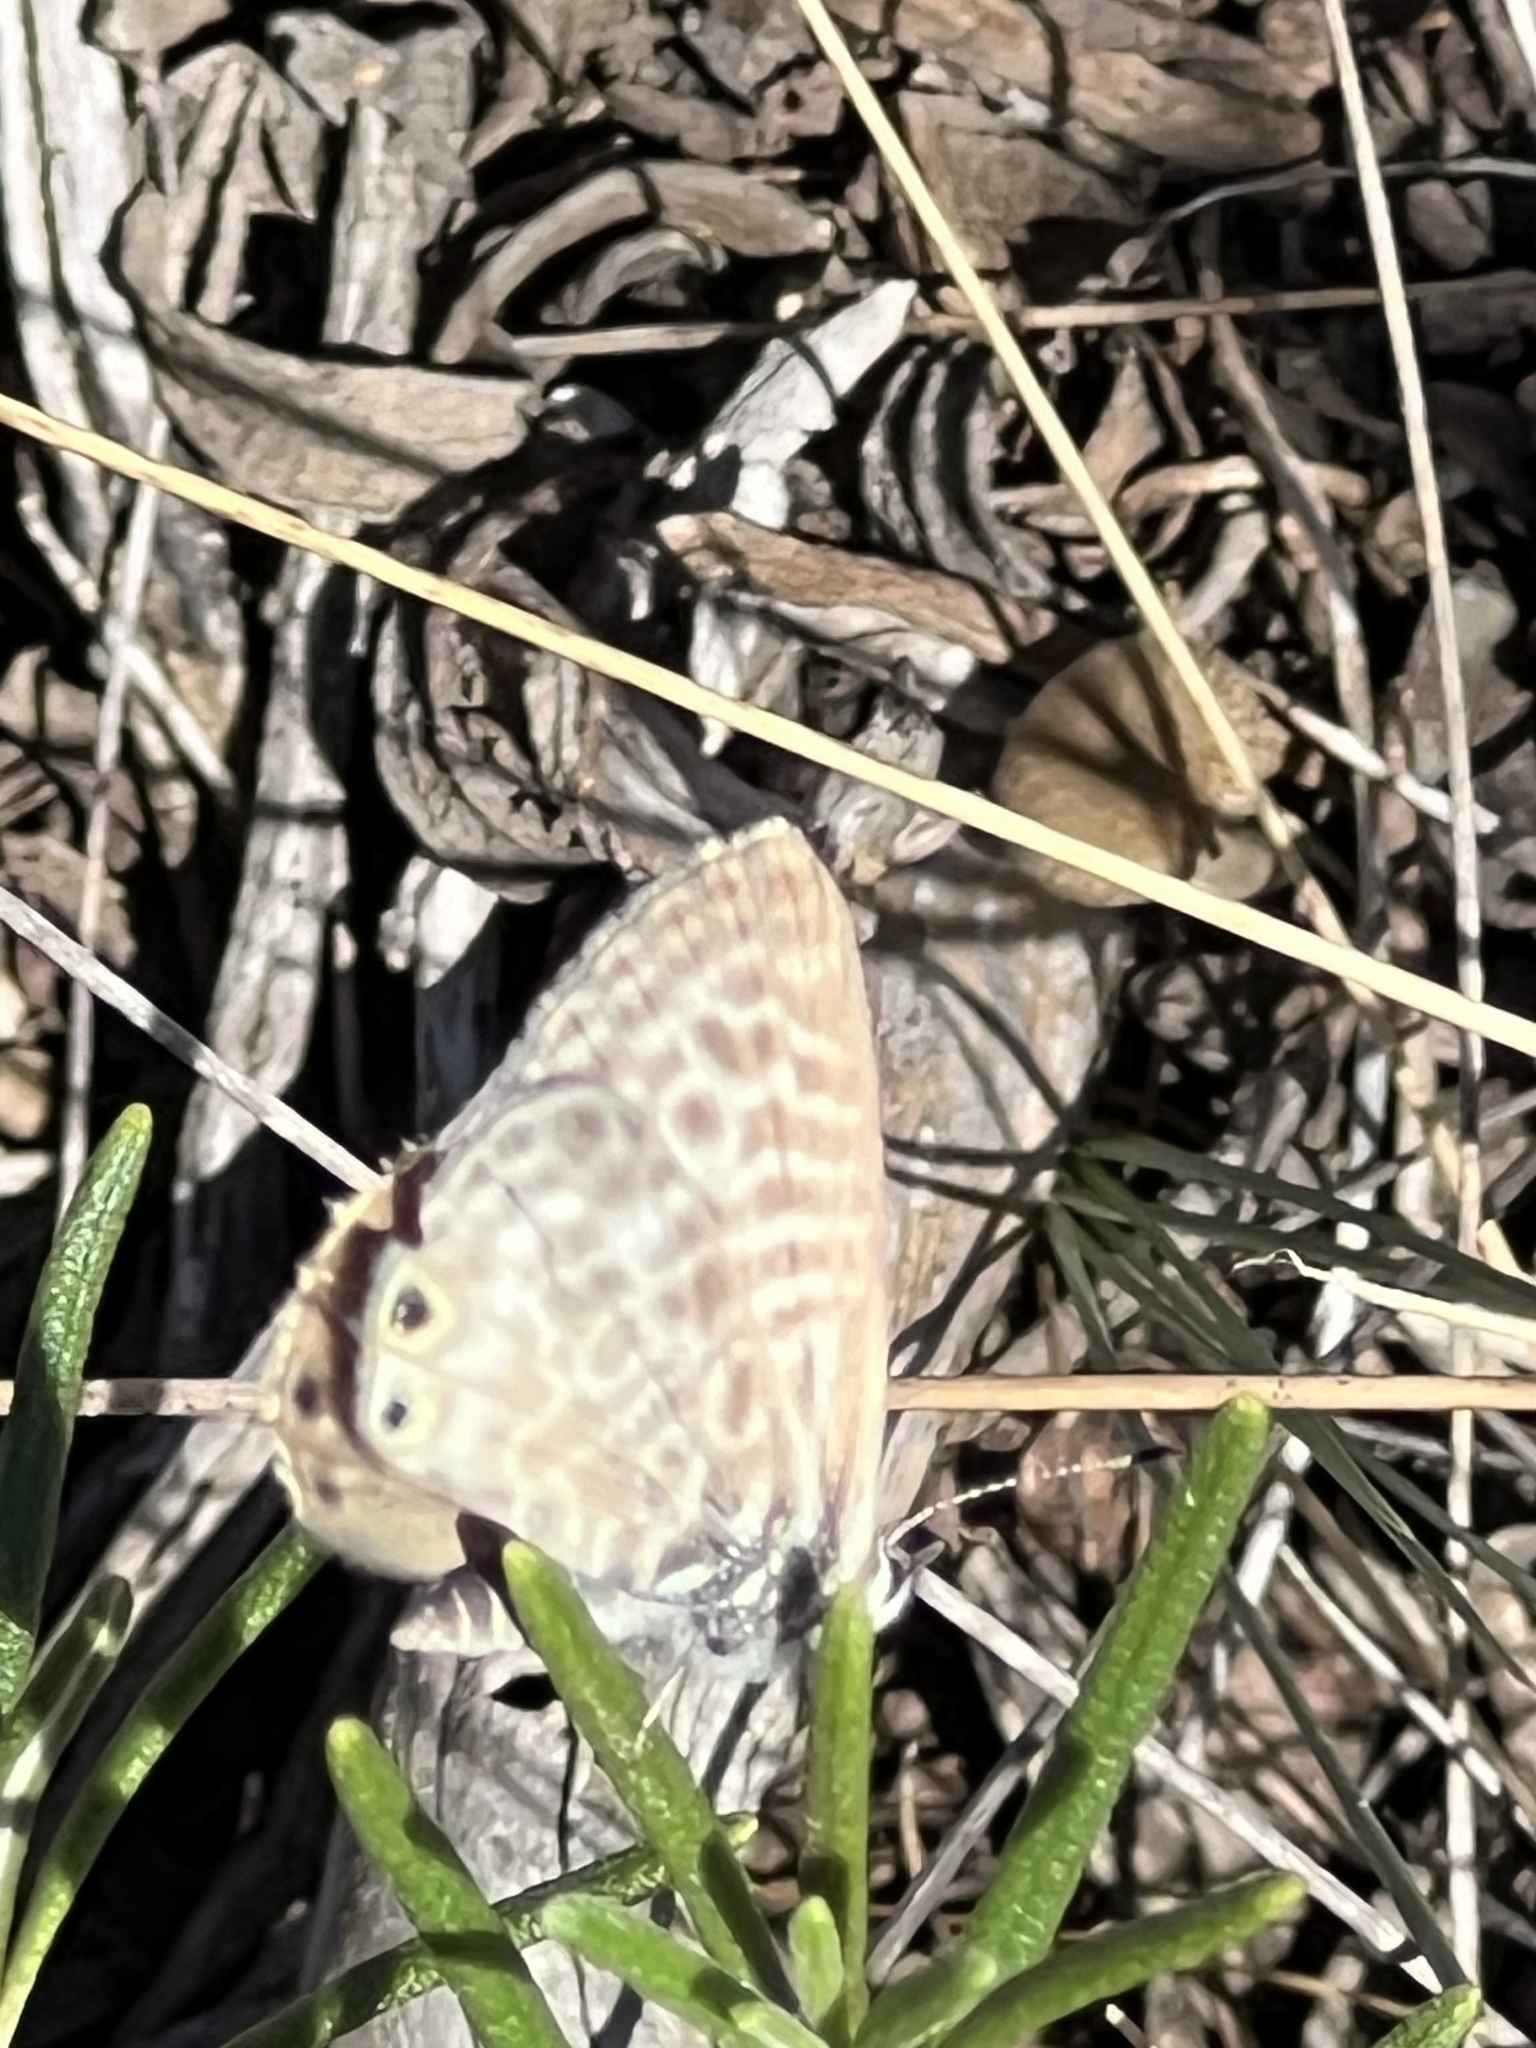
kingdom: Animalia
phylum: Arthropoda
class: Insecta
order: Lepidoptera
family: Lycaenidae
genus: Leptotes
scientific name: Leptotes pirithous
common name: Lang's short-tailed blue
